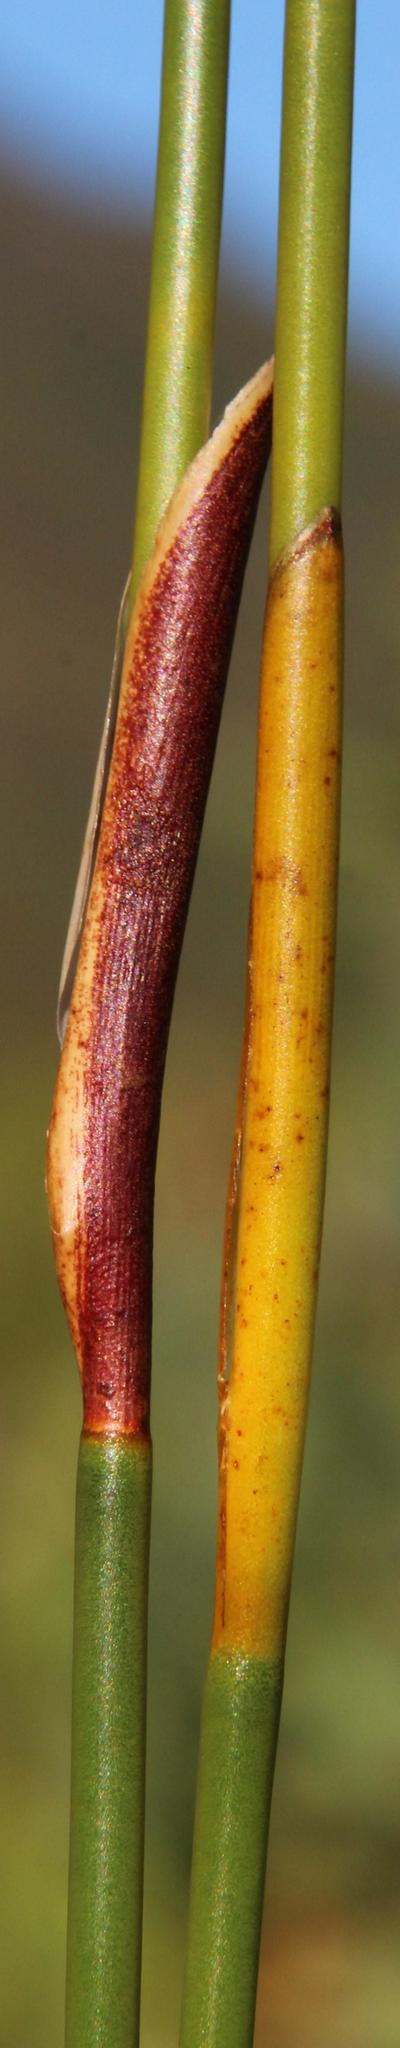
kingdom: Plantae
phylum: Tracheophyta
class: Liliopsida
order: Poales
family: Restionaceae
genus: Hypodiscus
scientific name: Hypodiscus aristatus
